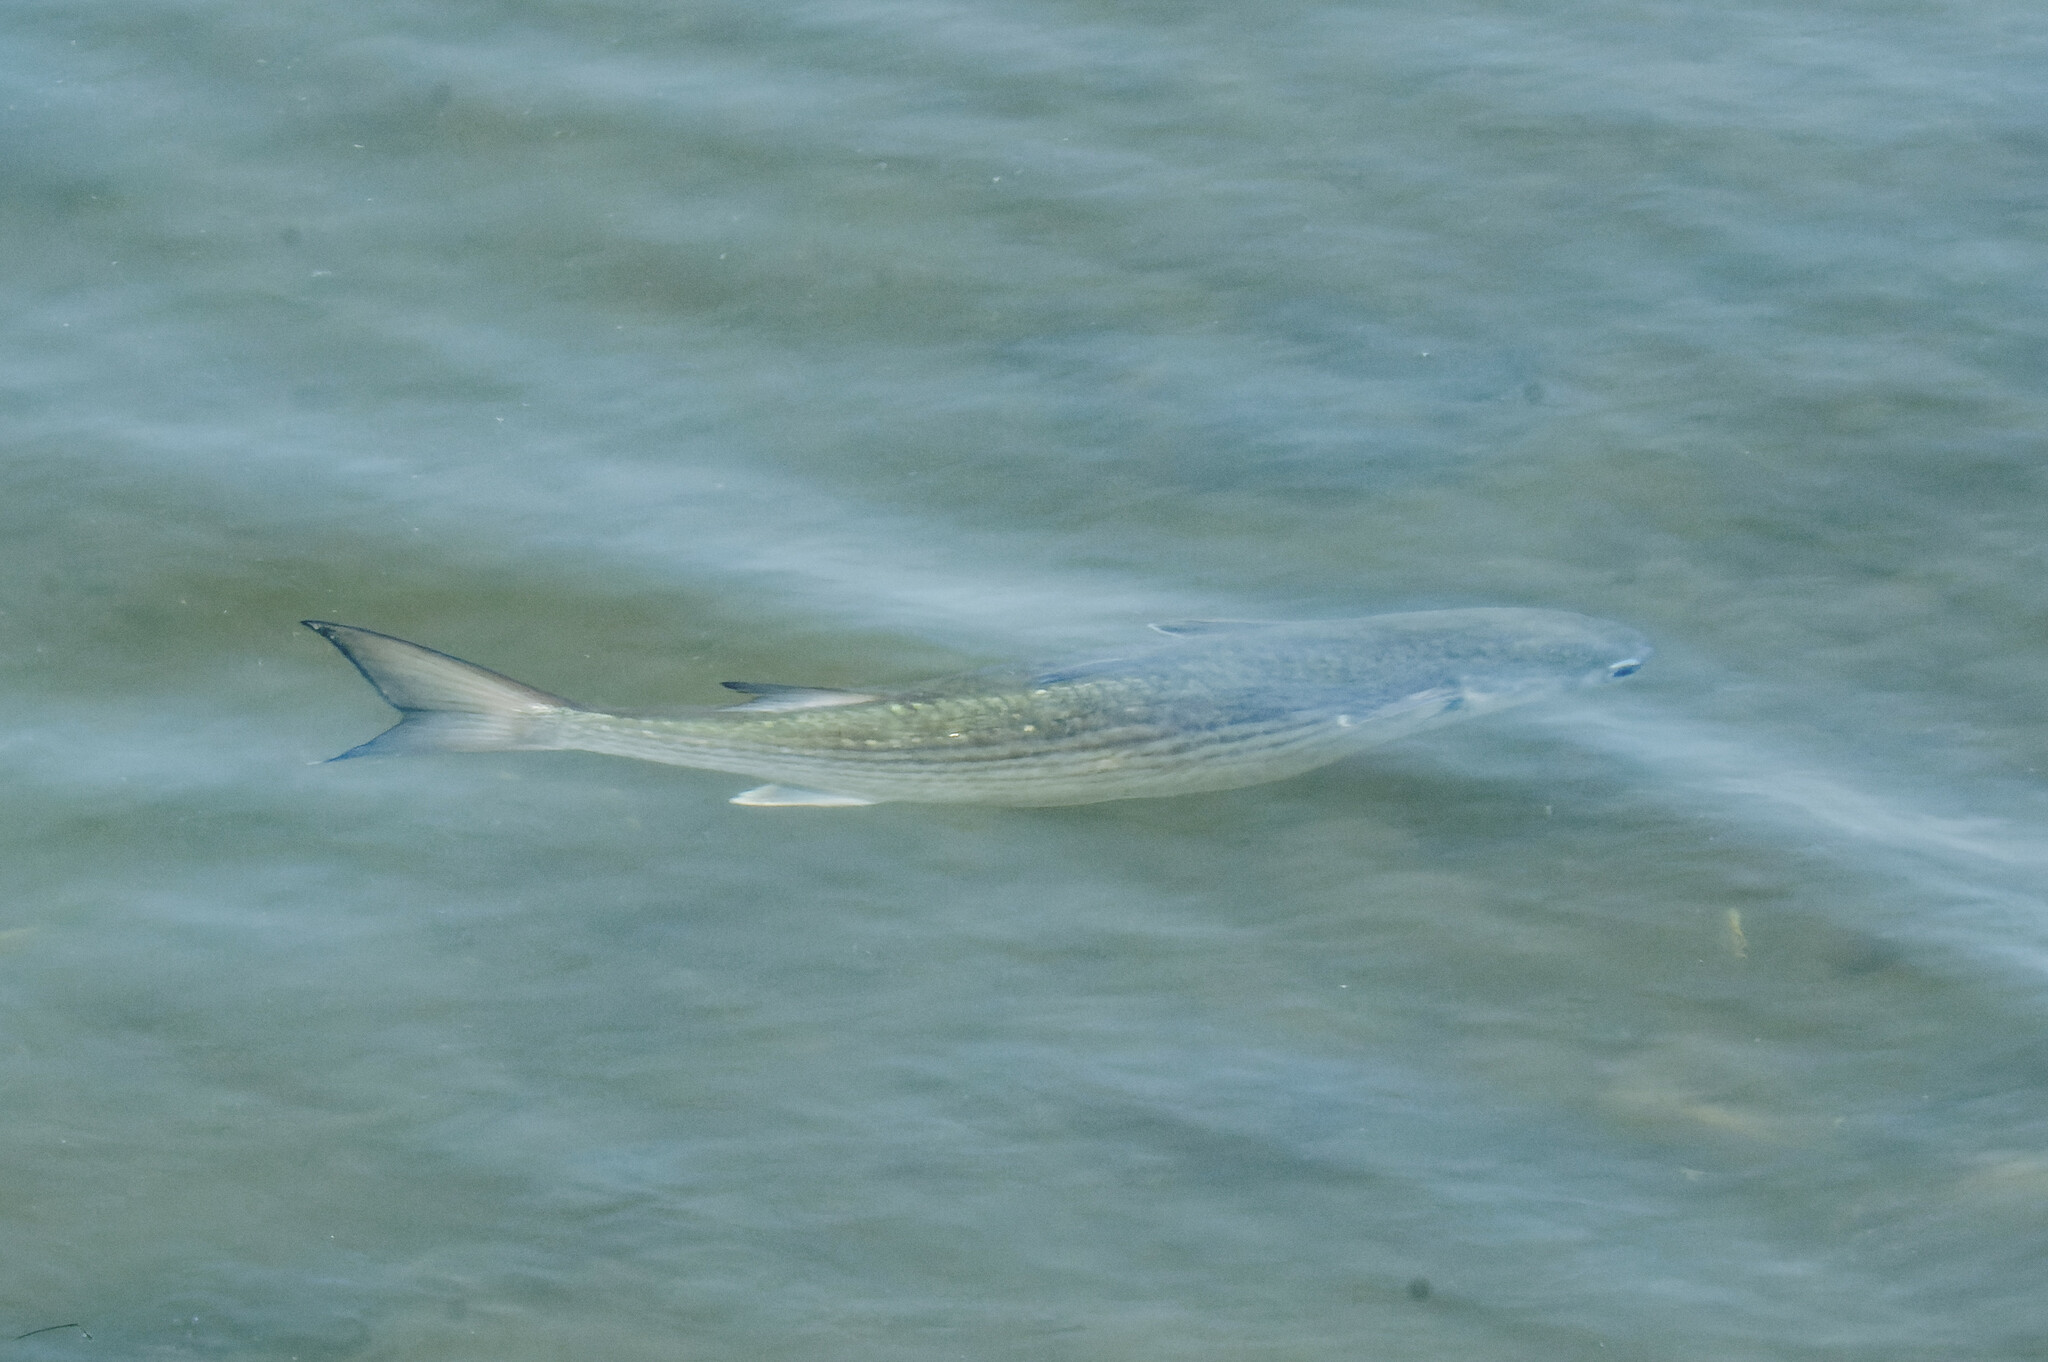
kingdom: Animalia
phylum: Chordata
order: Mugiliformes
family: Mugilidae
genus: Mugil
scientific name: Mugil cephalus
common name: Grey mullet
